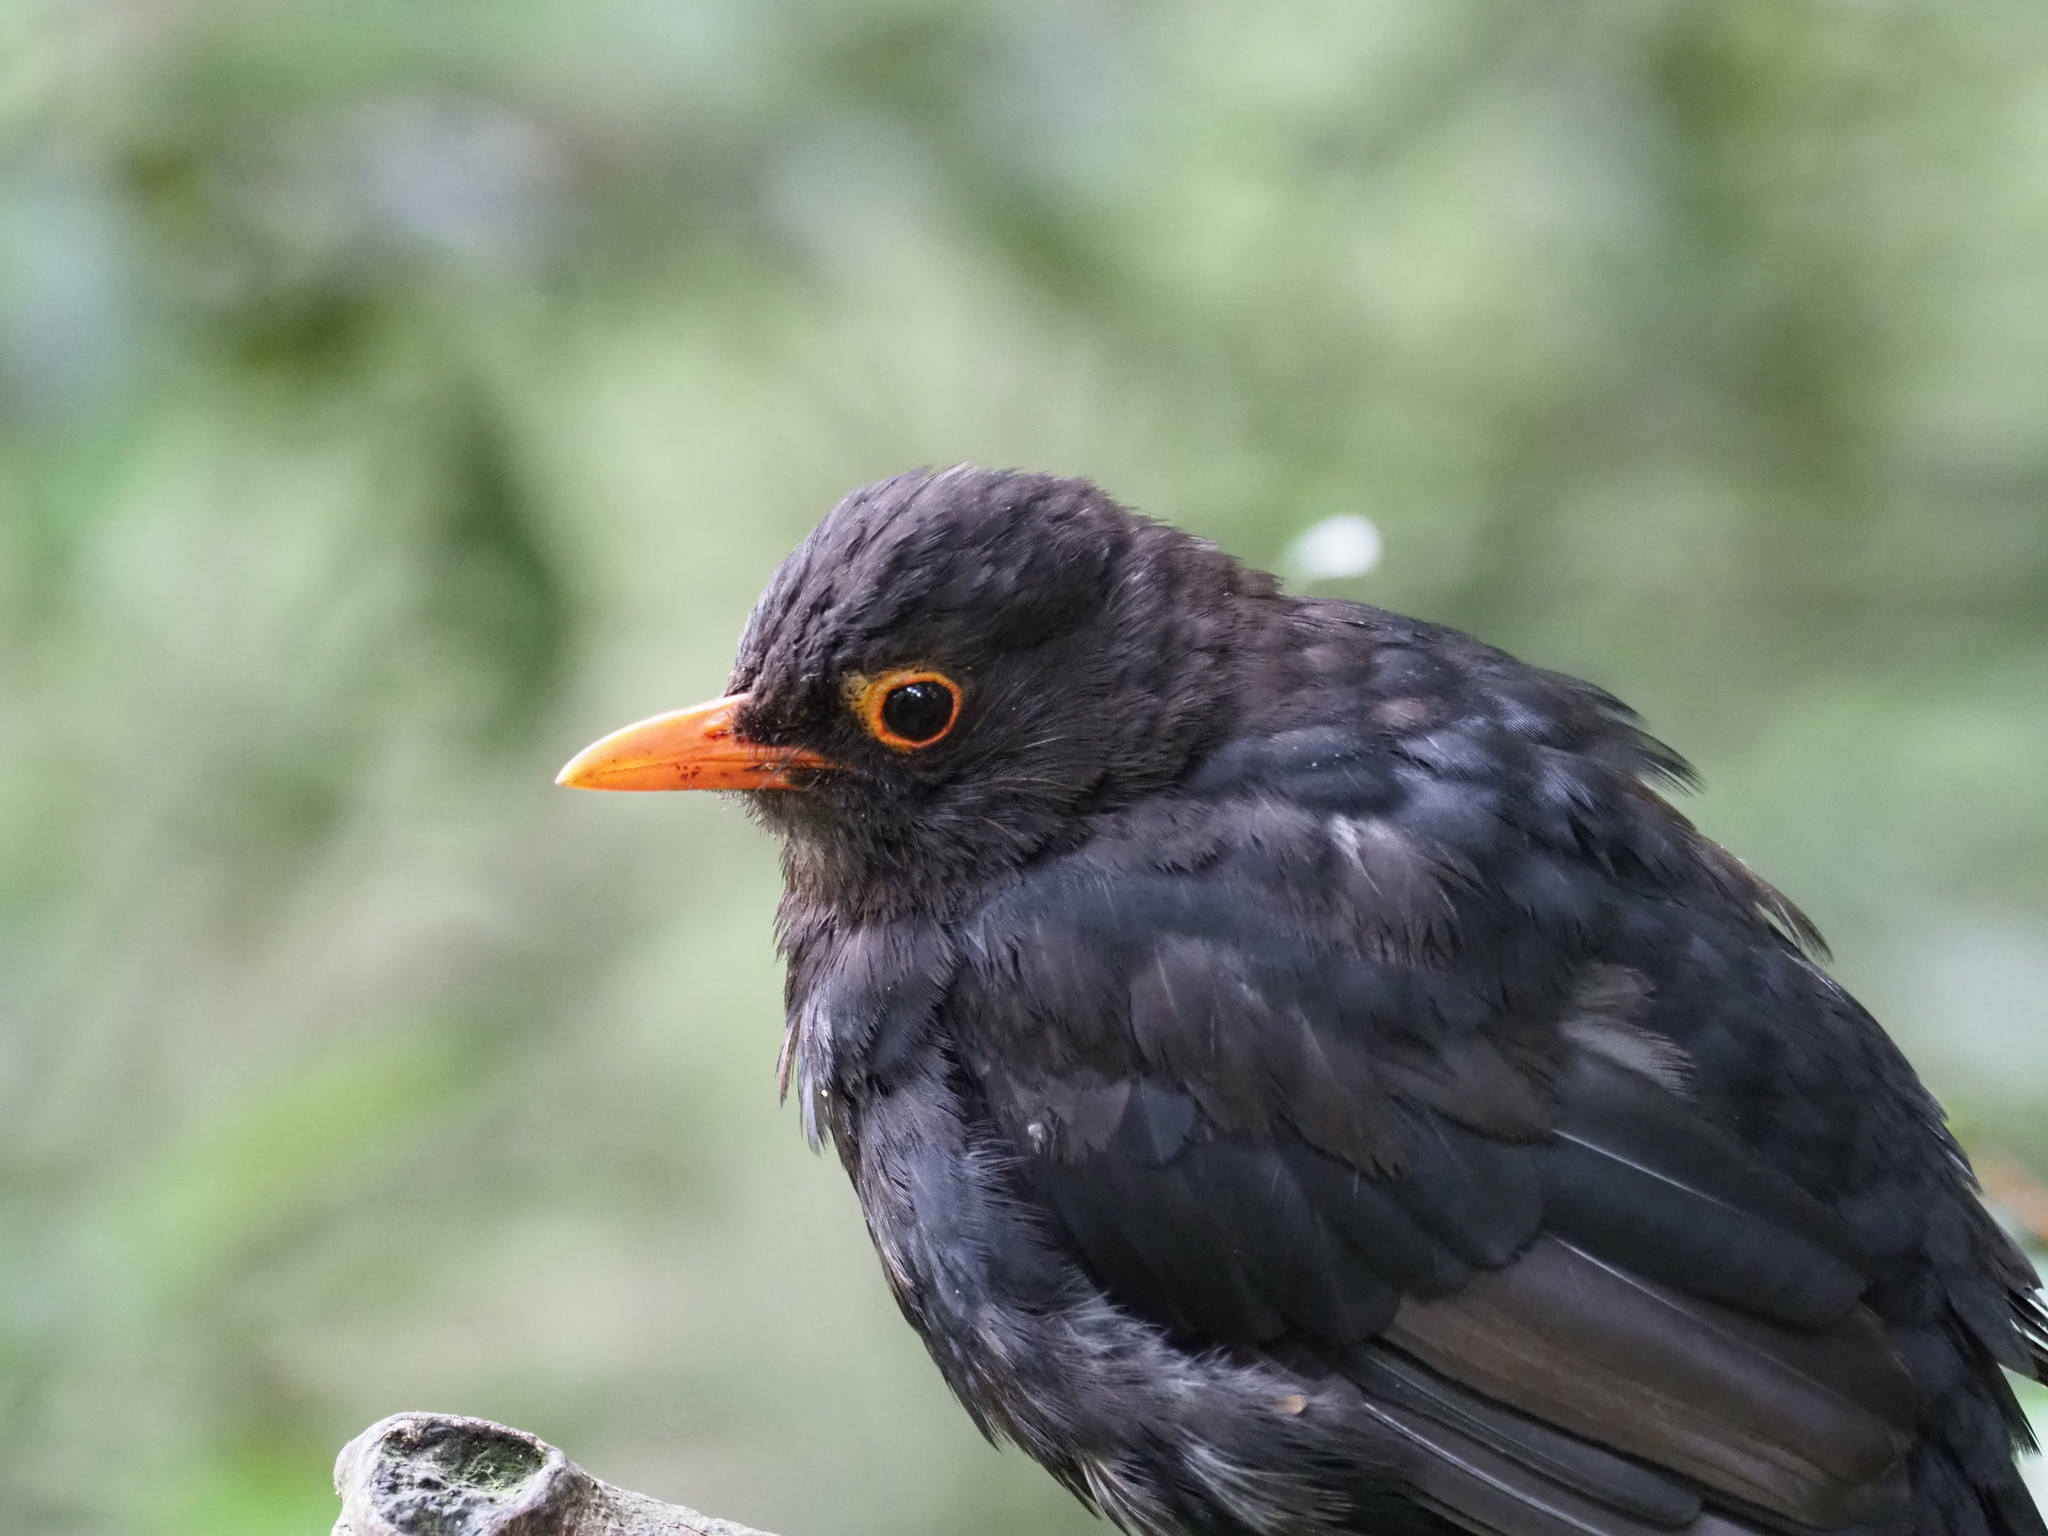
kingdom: Animalia
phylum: Chordata
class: Aves
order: Passeriformes
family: Turdidae
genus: Turdus
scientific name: Turdus merula
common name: Common blackbird
